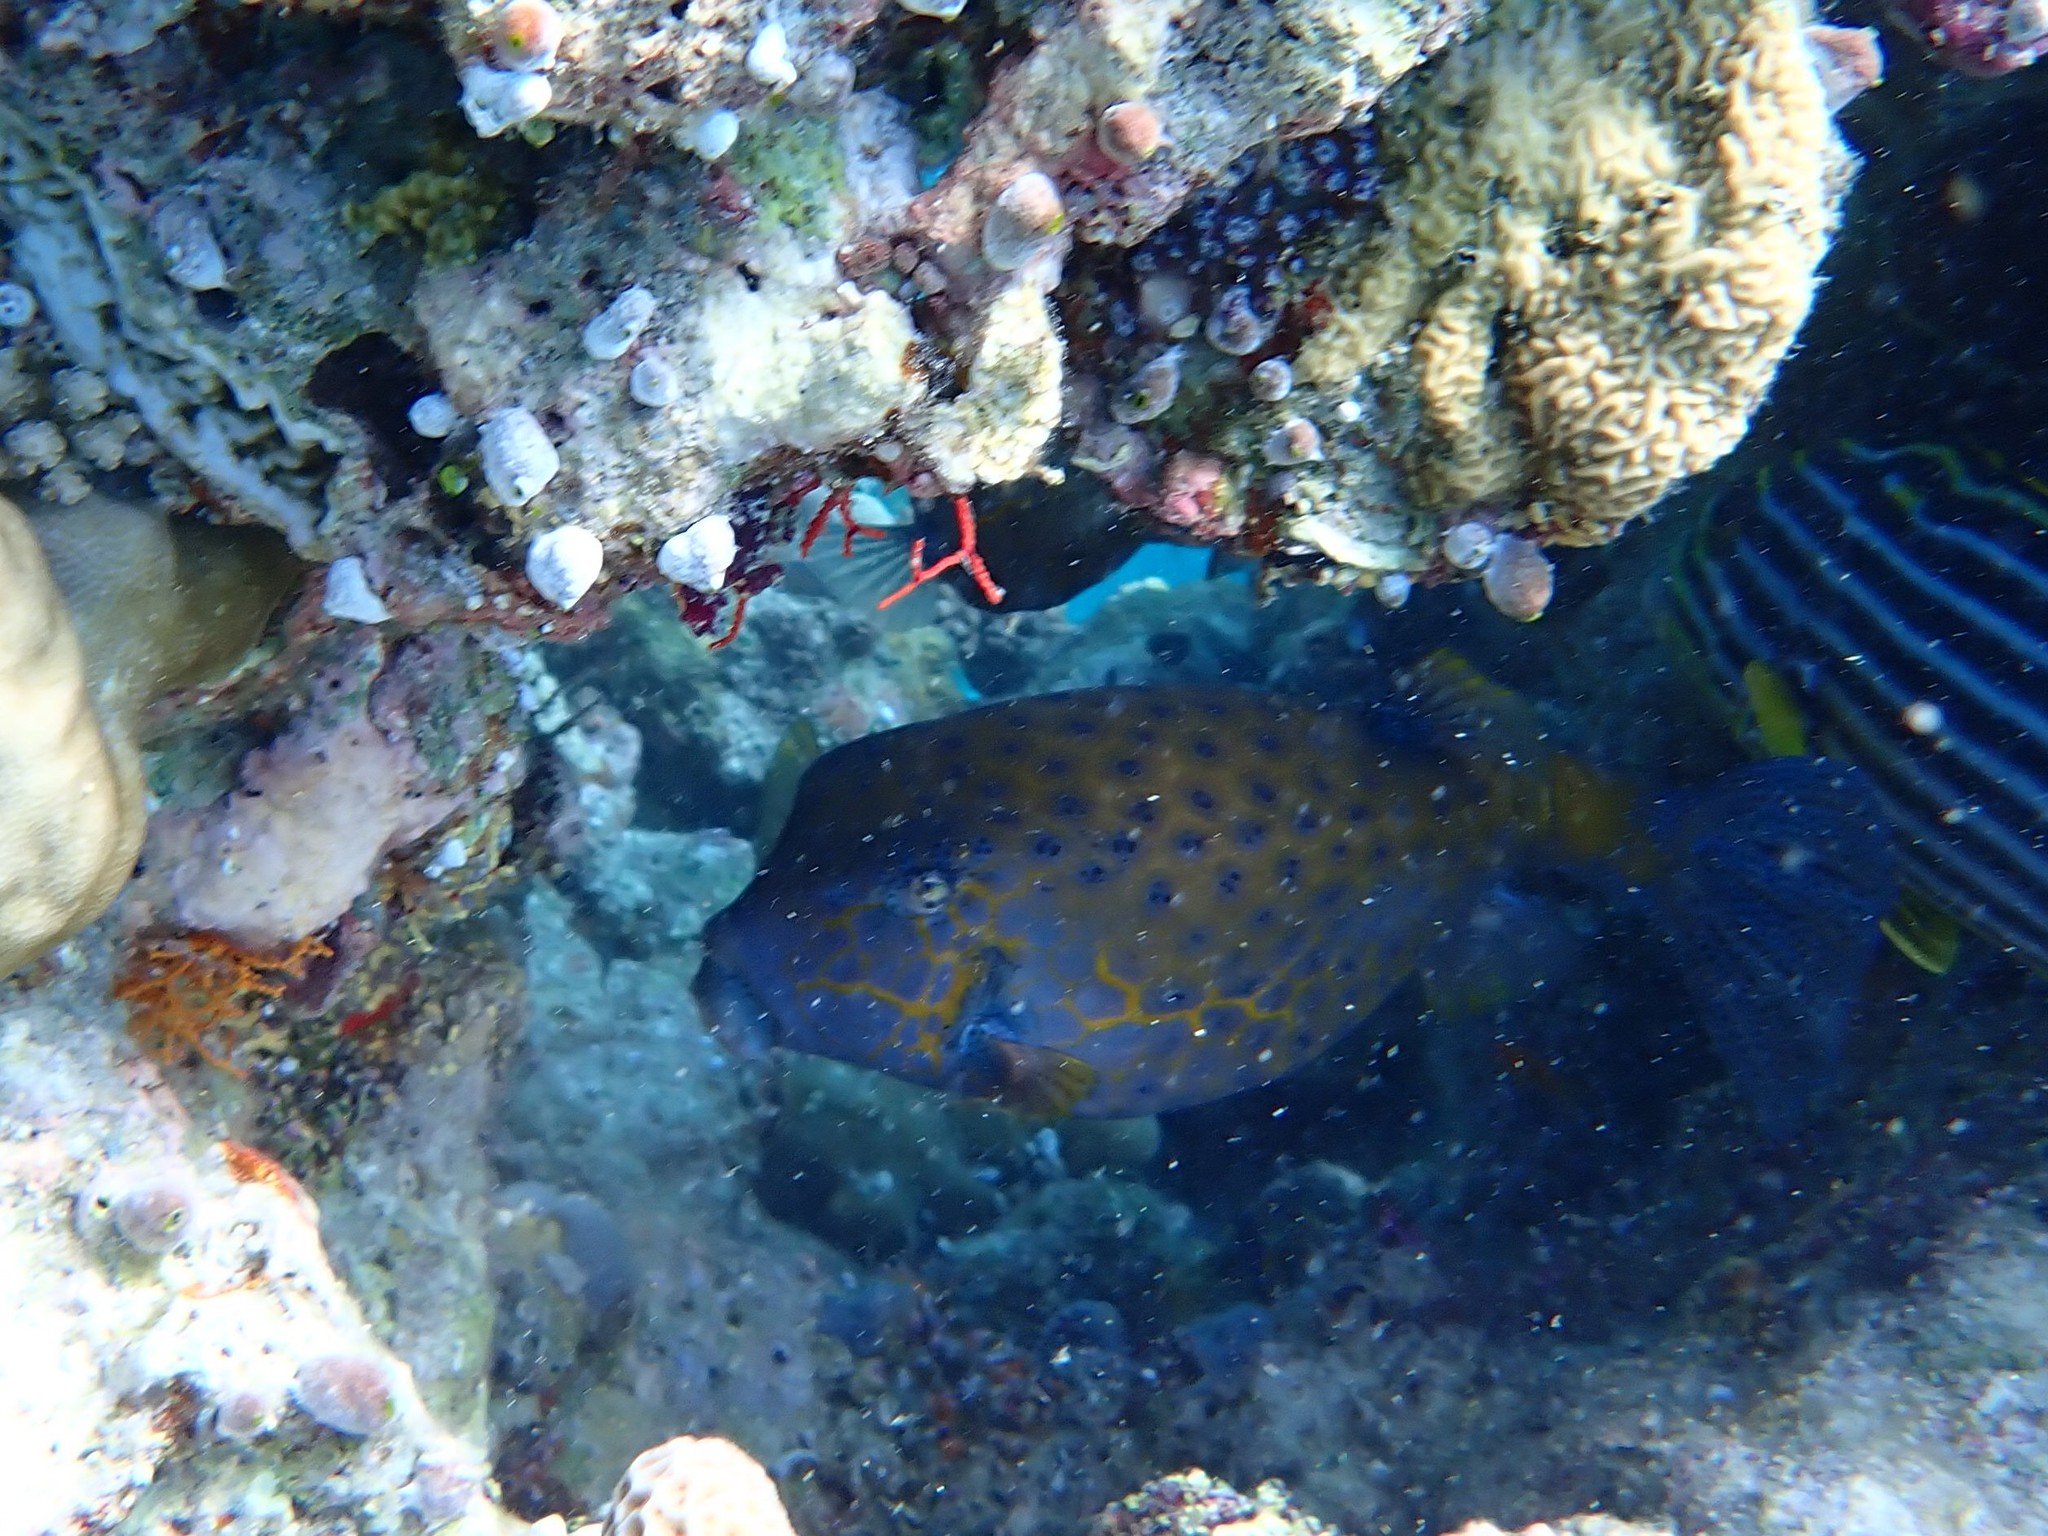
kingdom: Animalia
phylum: Chordata
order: Tetraodontiformes
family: Ostraciidae
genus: Ostracion
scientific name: Ostracion cubicus
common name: Cube trunkfish
